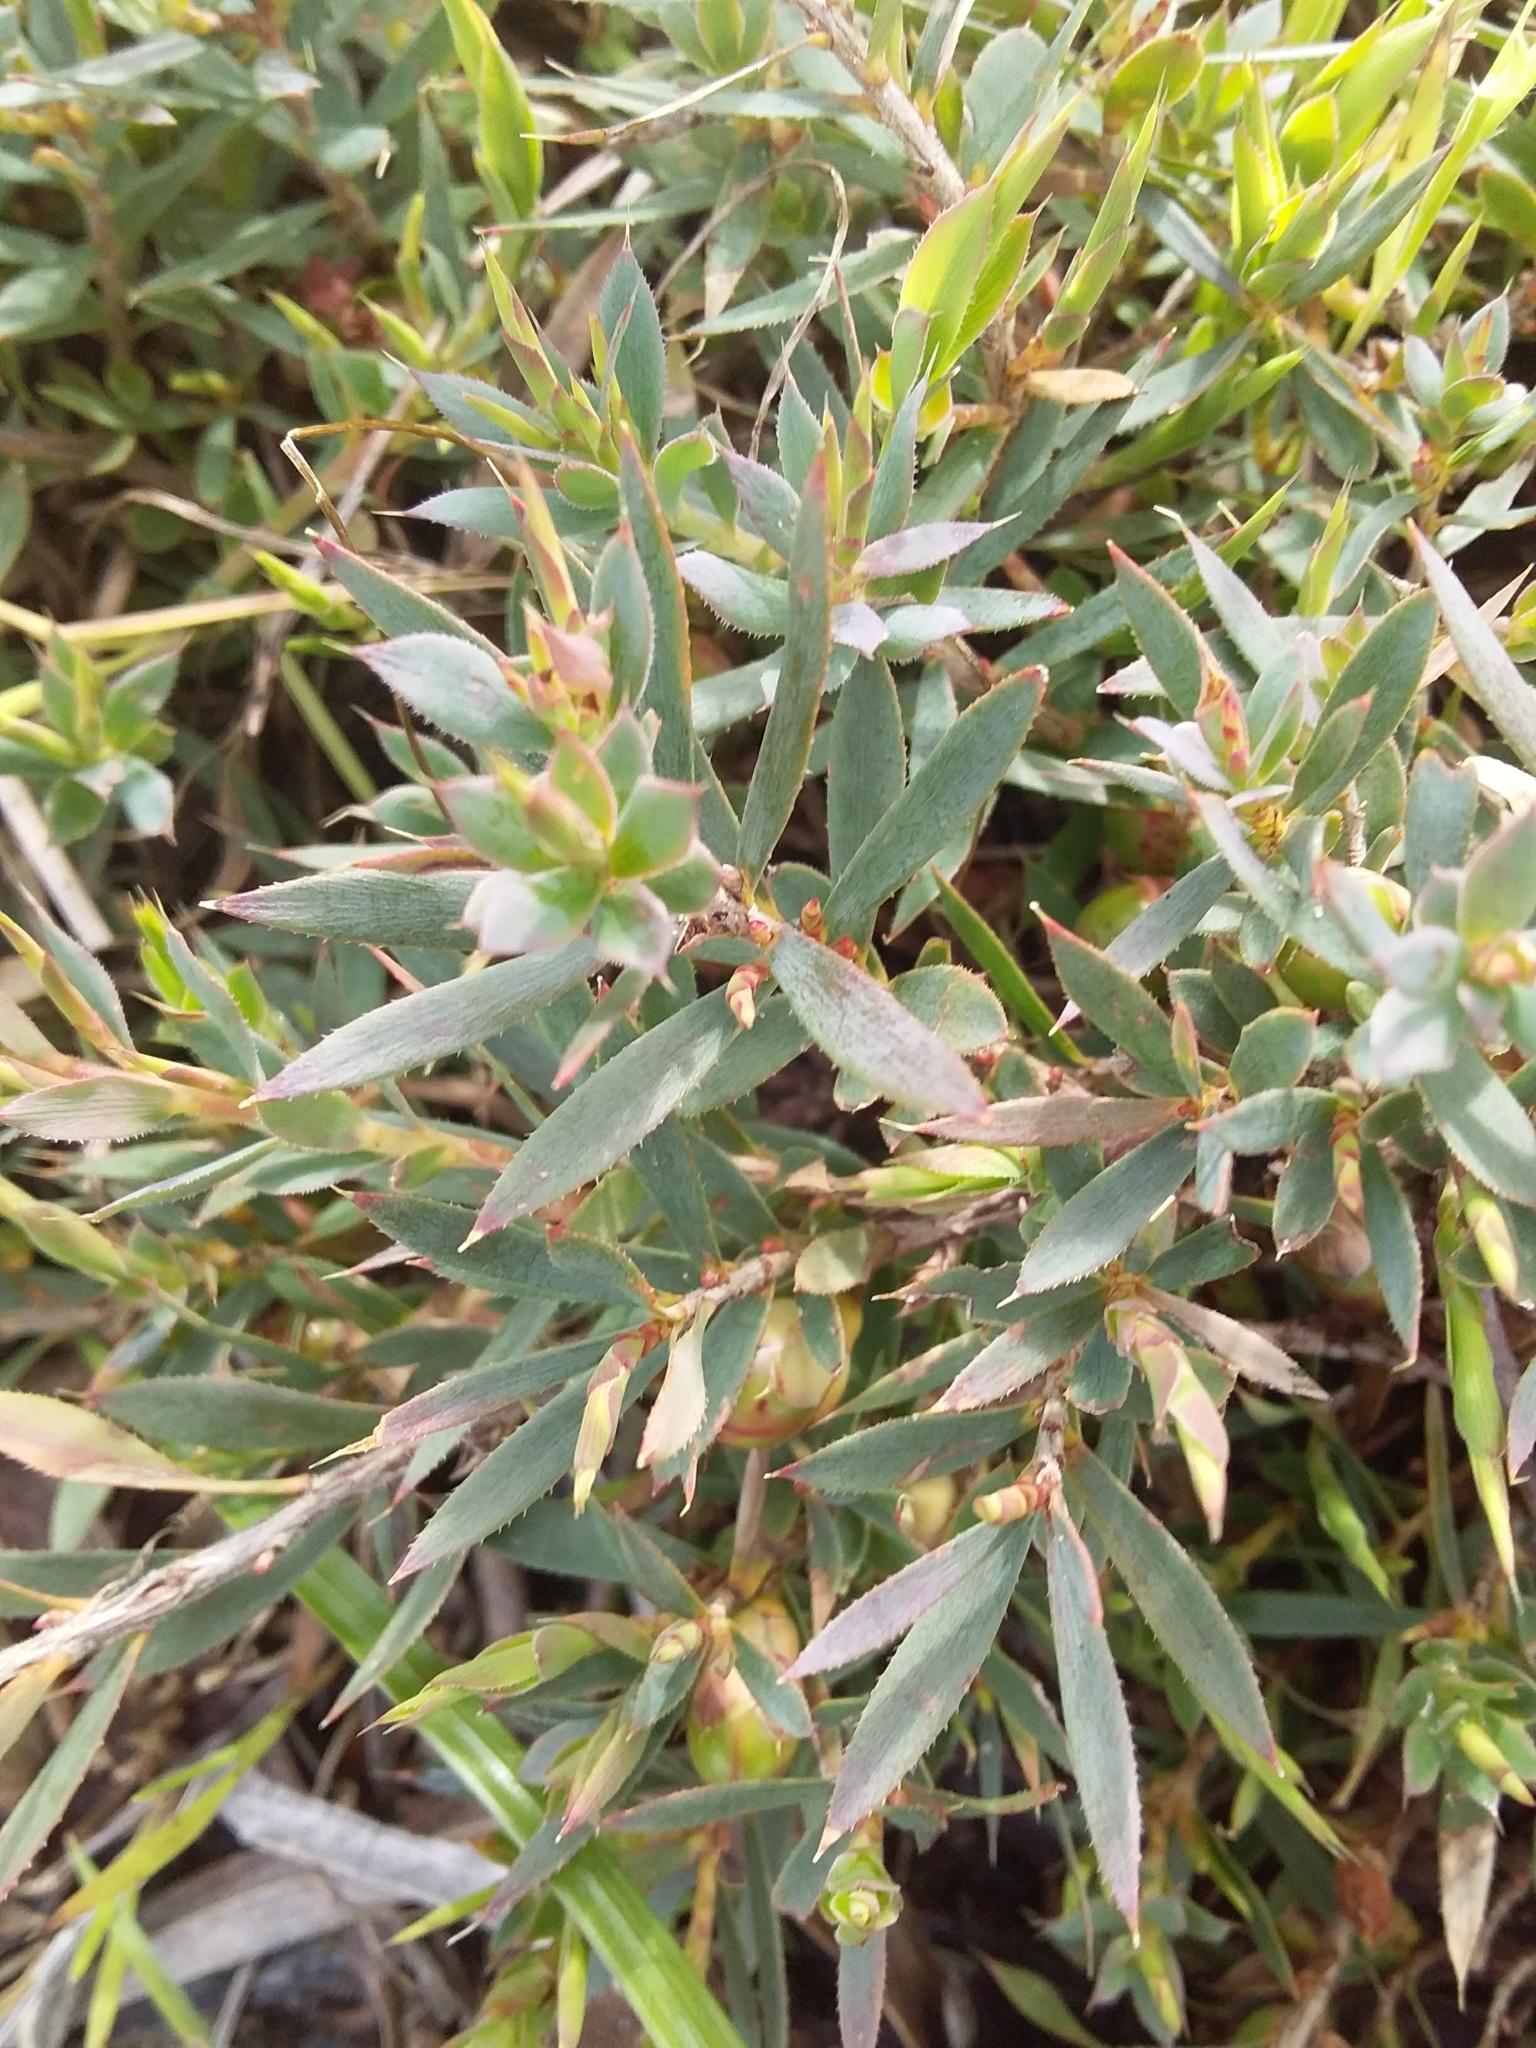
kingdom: Plantae
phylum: Tracheophyta
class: Magnoliopsida
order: Ericales
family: Ericaceae
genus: Styphelia
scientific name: Styphelia humifusa
